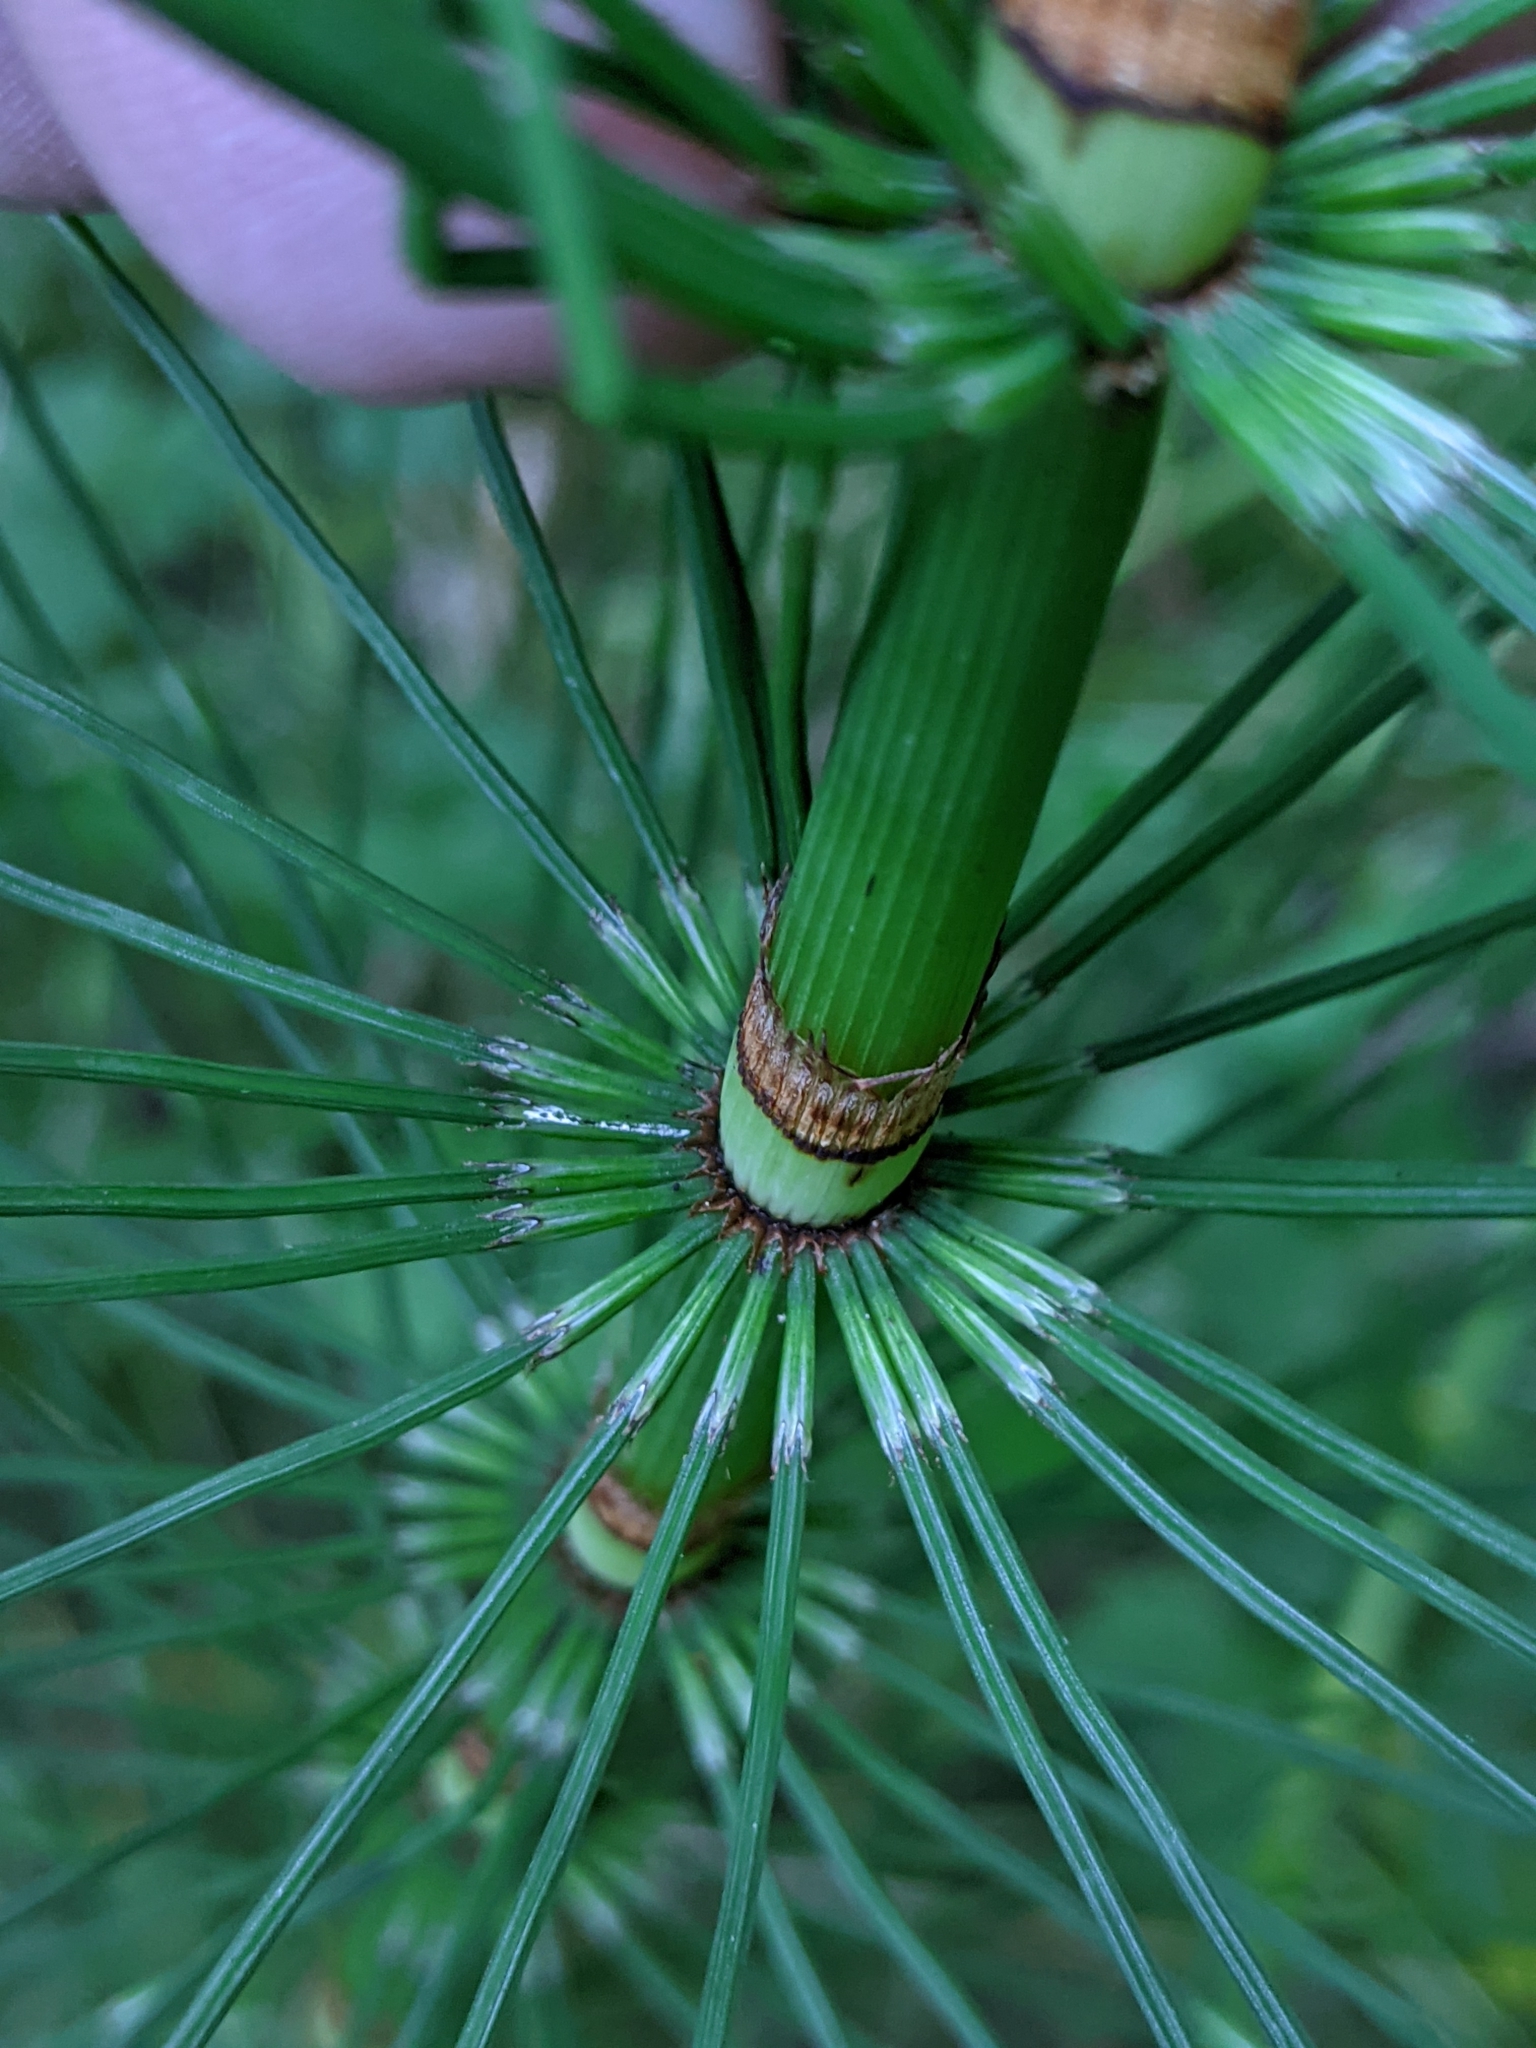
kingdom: Plantae
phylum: Tracheophyta
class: Polypodiopsida
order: Equisetales
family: Equisetaceae
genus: Equisetum
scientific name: Equisetum braunii
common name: Braun's horsetail
